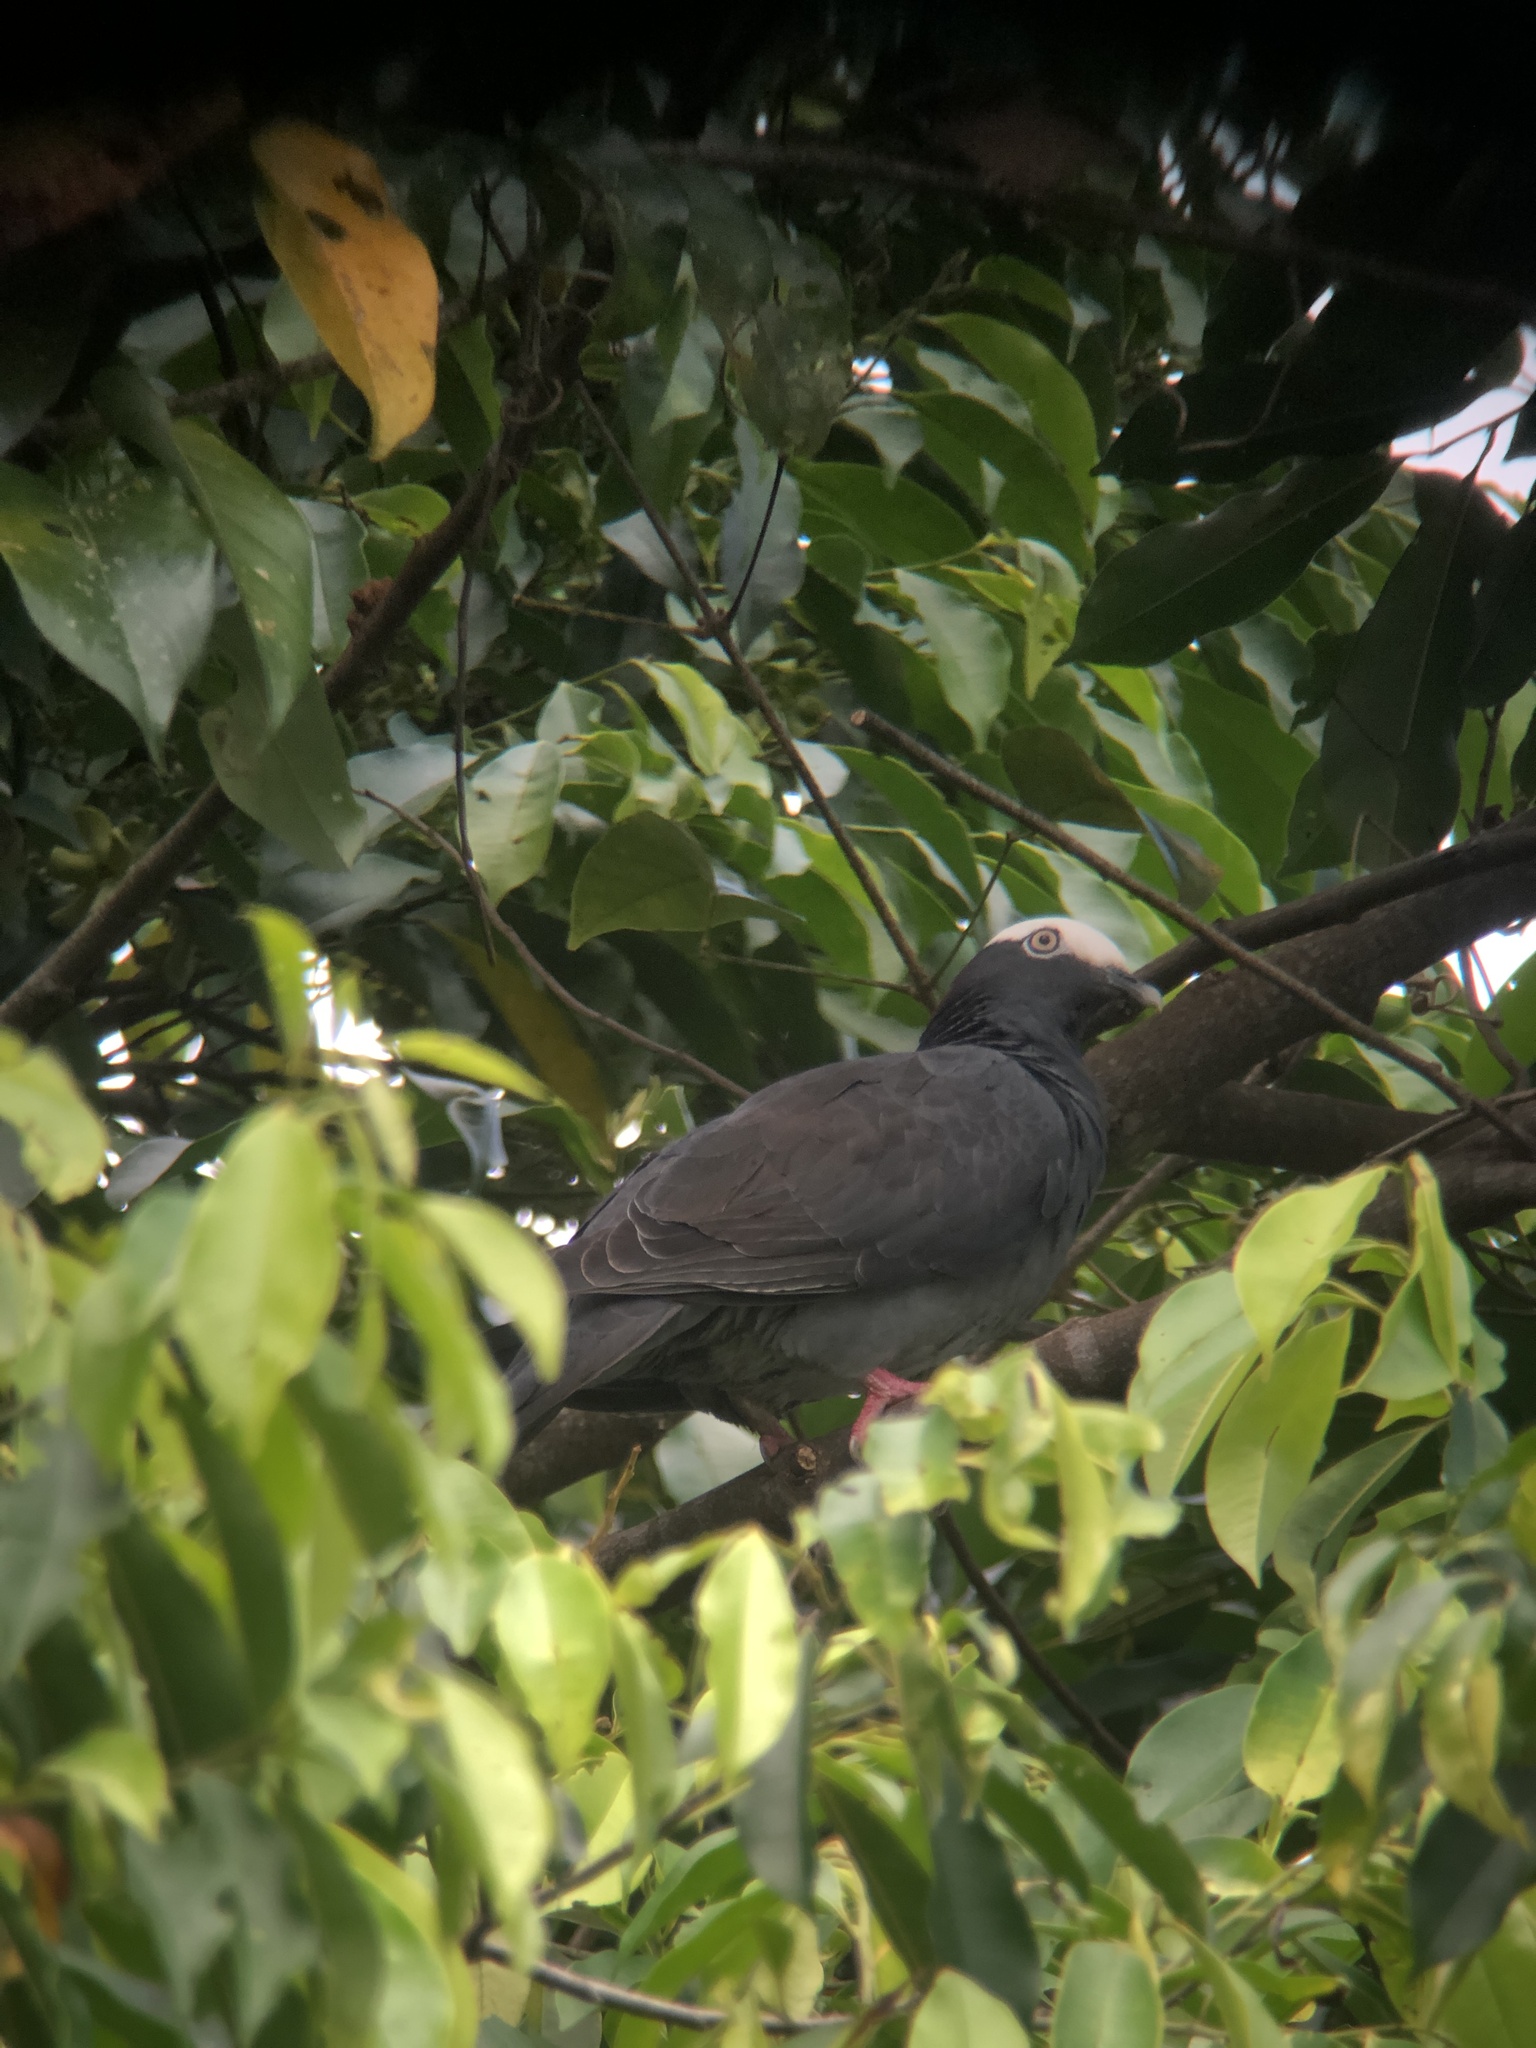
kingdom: Animalia
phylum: Chordata
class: Aves
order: Columbiformes
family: Columbidae
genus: Patagioenas
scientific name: Patagioenas leucocephala
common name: White-crowned pigeon
